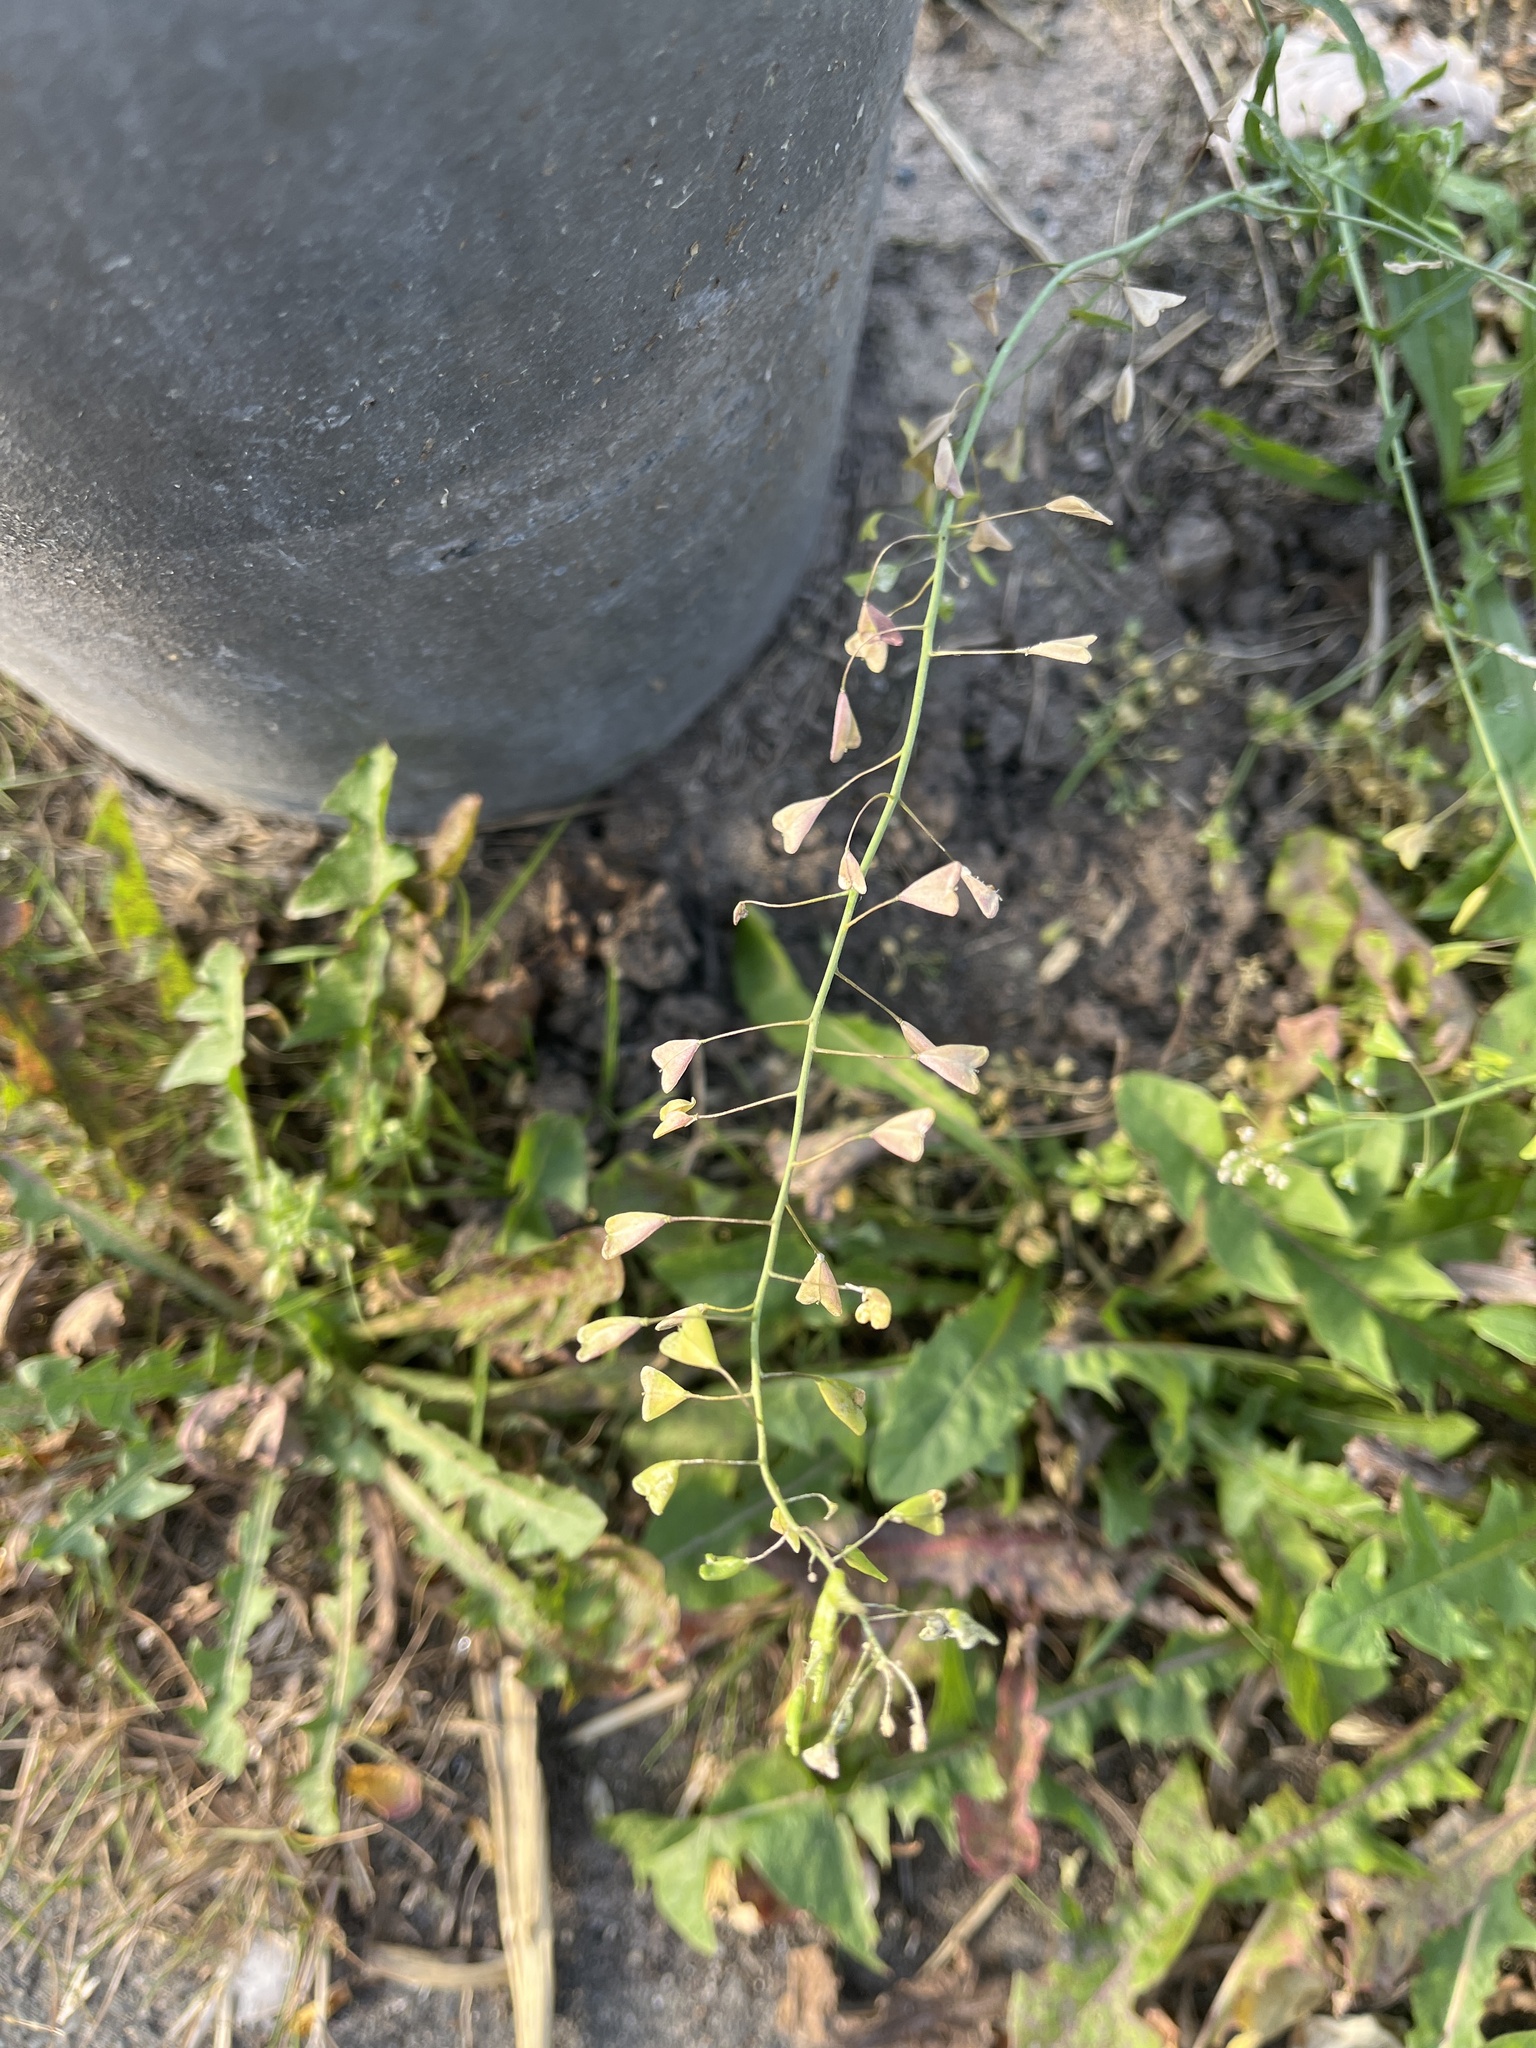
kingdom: Plantae
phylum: Tracheophyta
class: Magnoliopsida
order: Brassicales
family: Brassicaceae
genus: Capsella
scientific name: Capsella bursa-pastoris
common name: Shepherd's purse
